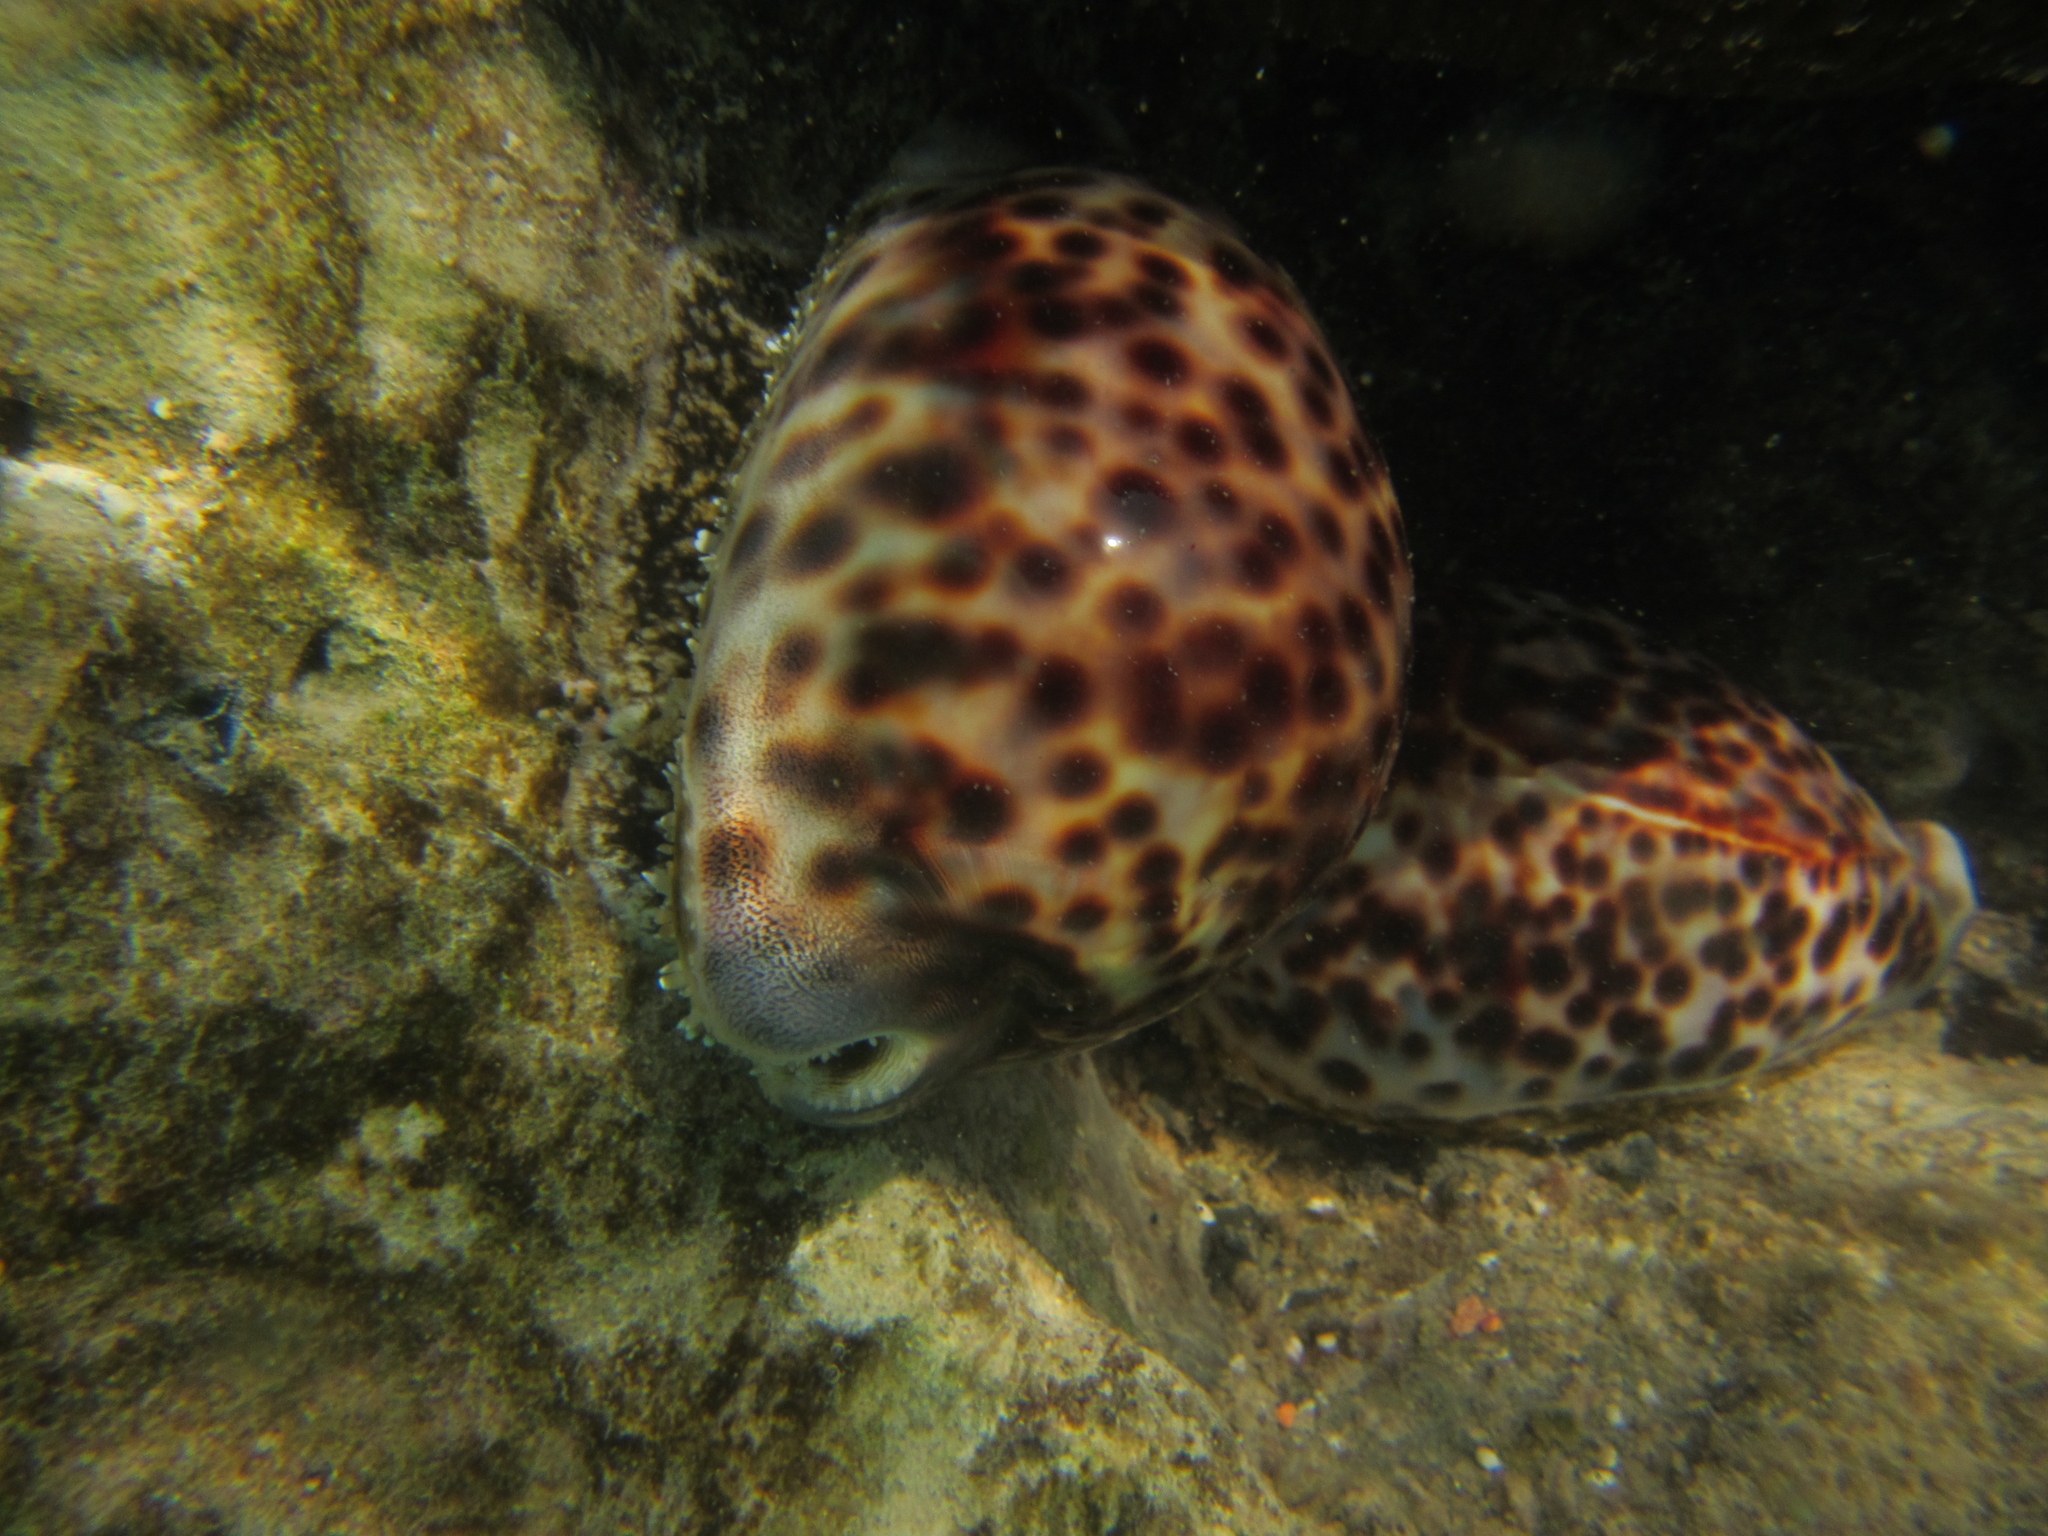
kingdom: Animalia
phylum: Mollusca
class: Gastropoda
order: Littorinimorpha
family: Cypraeidae
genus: Cypraea
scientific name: Cypraea tigris
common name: Tiger cowrie
